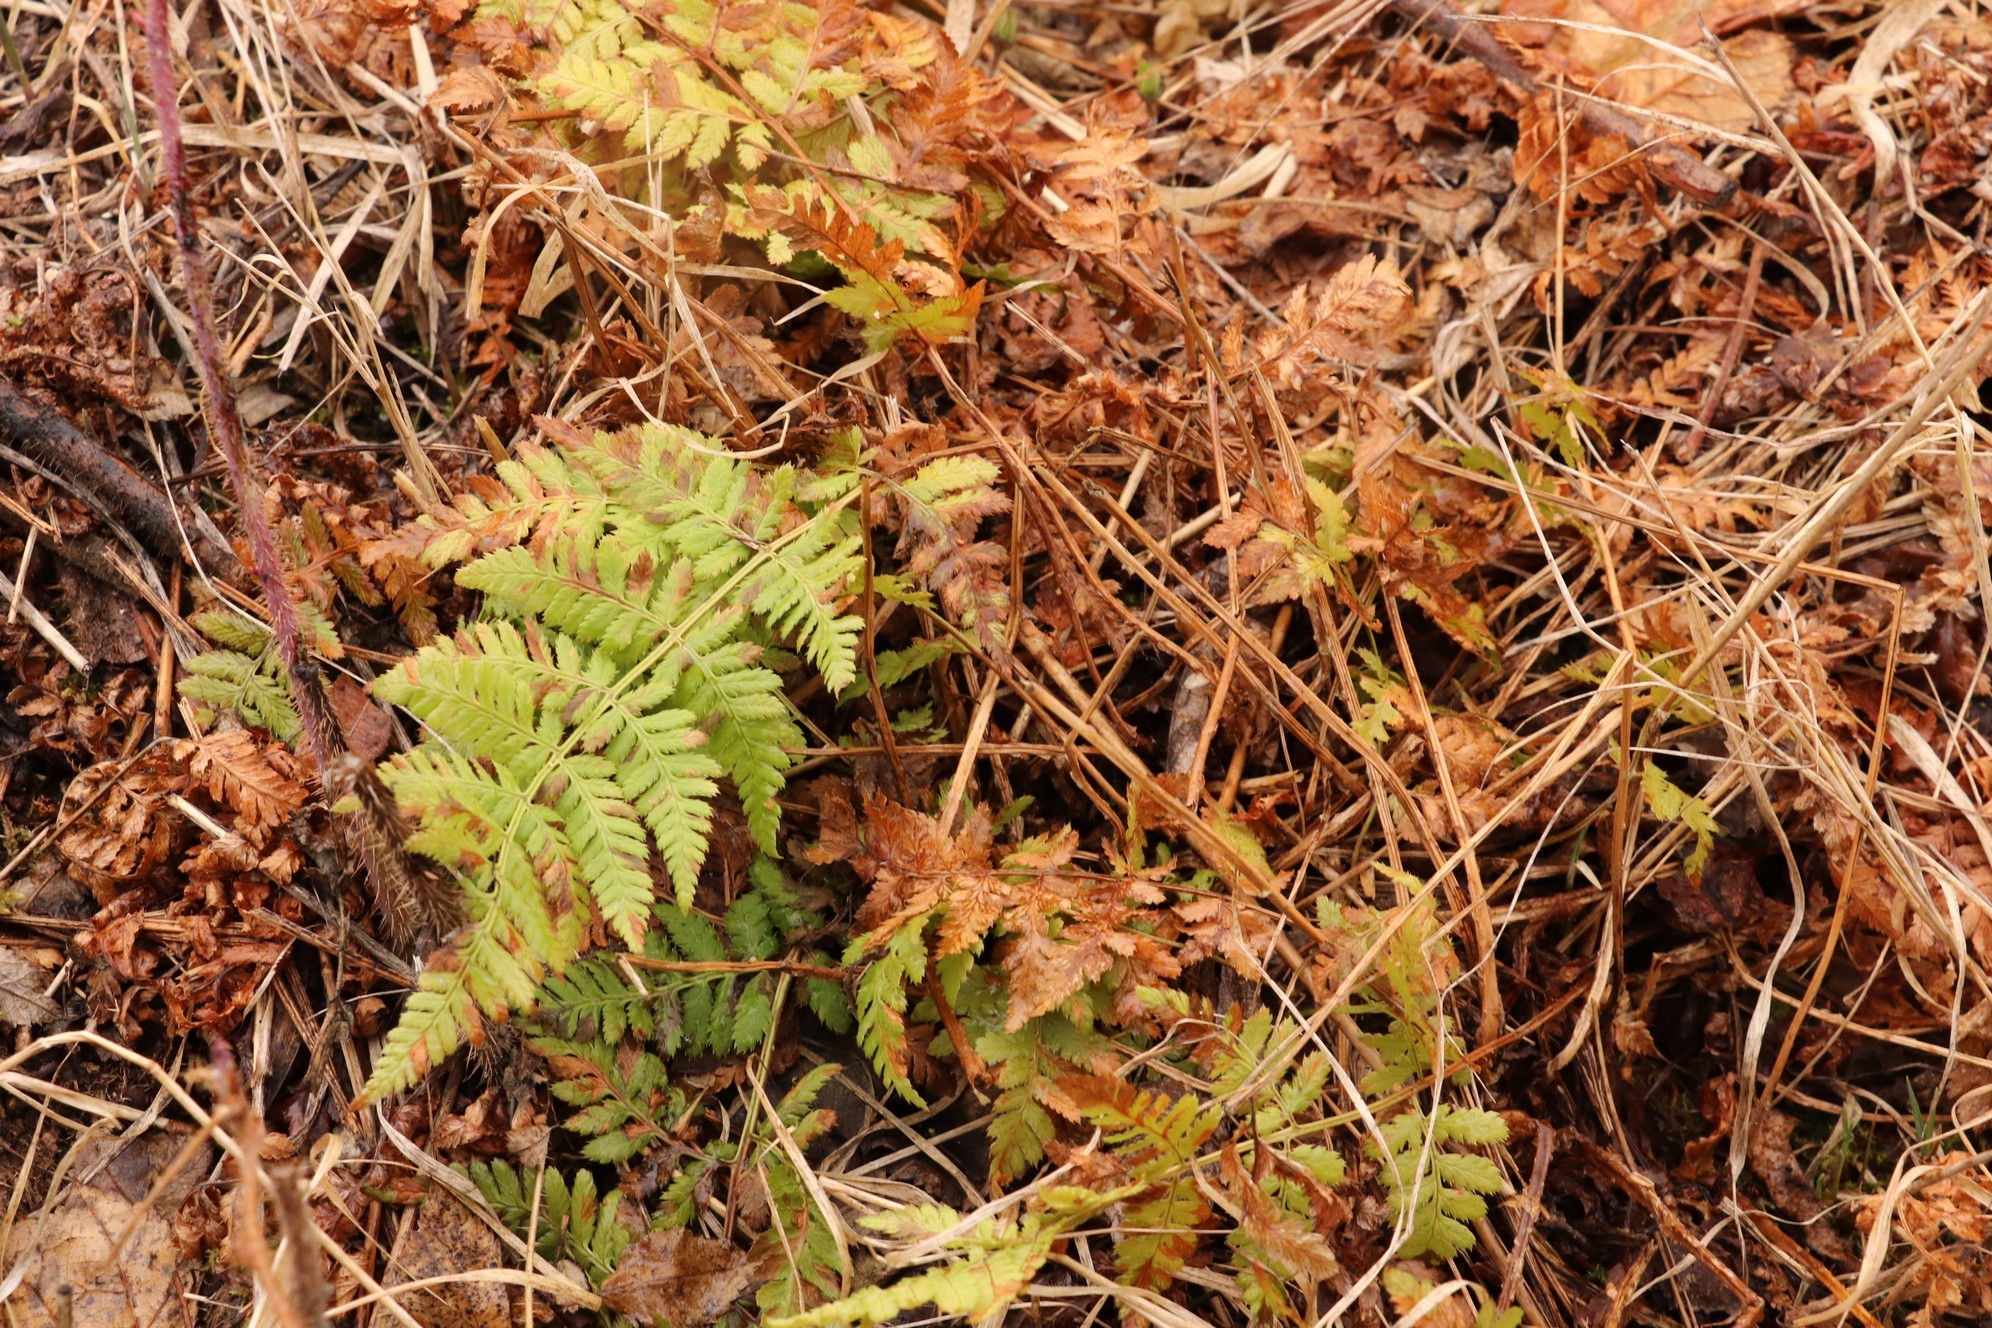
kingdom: Plantae
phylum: Tracheophyta
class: Polypodiopsida
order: Polypodiales
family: Dryopteridaceae
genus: Dryopteris
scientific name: Dryopteris carthusiana
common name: Narrow buckler-fern
